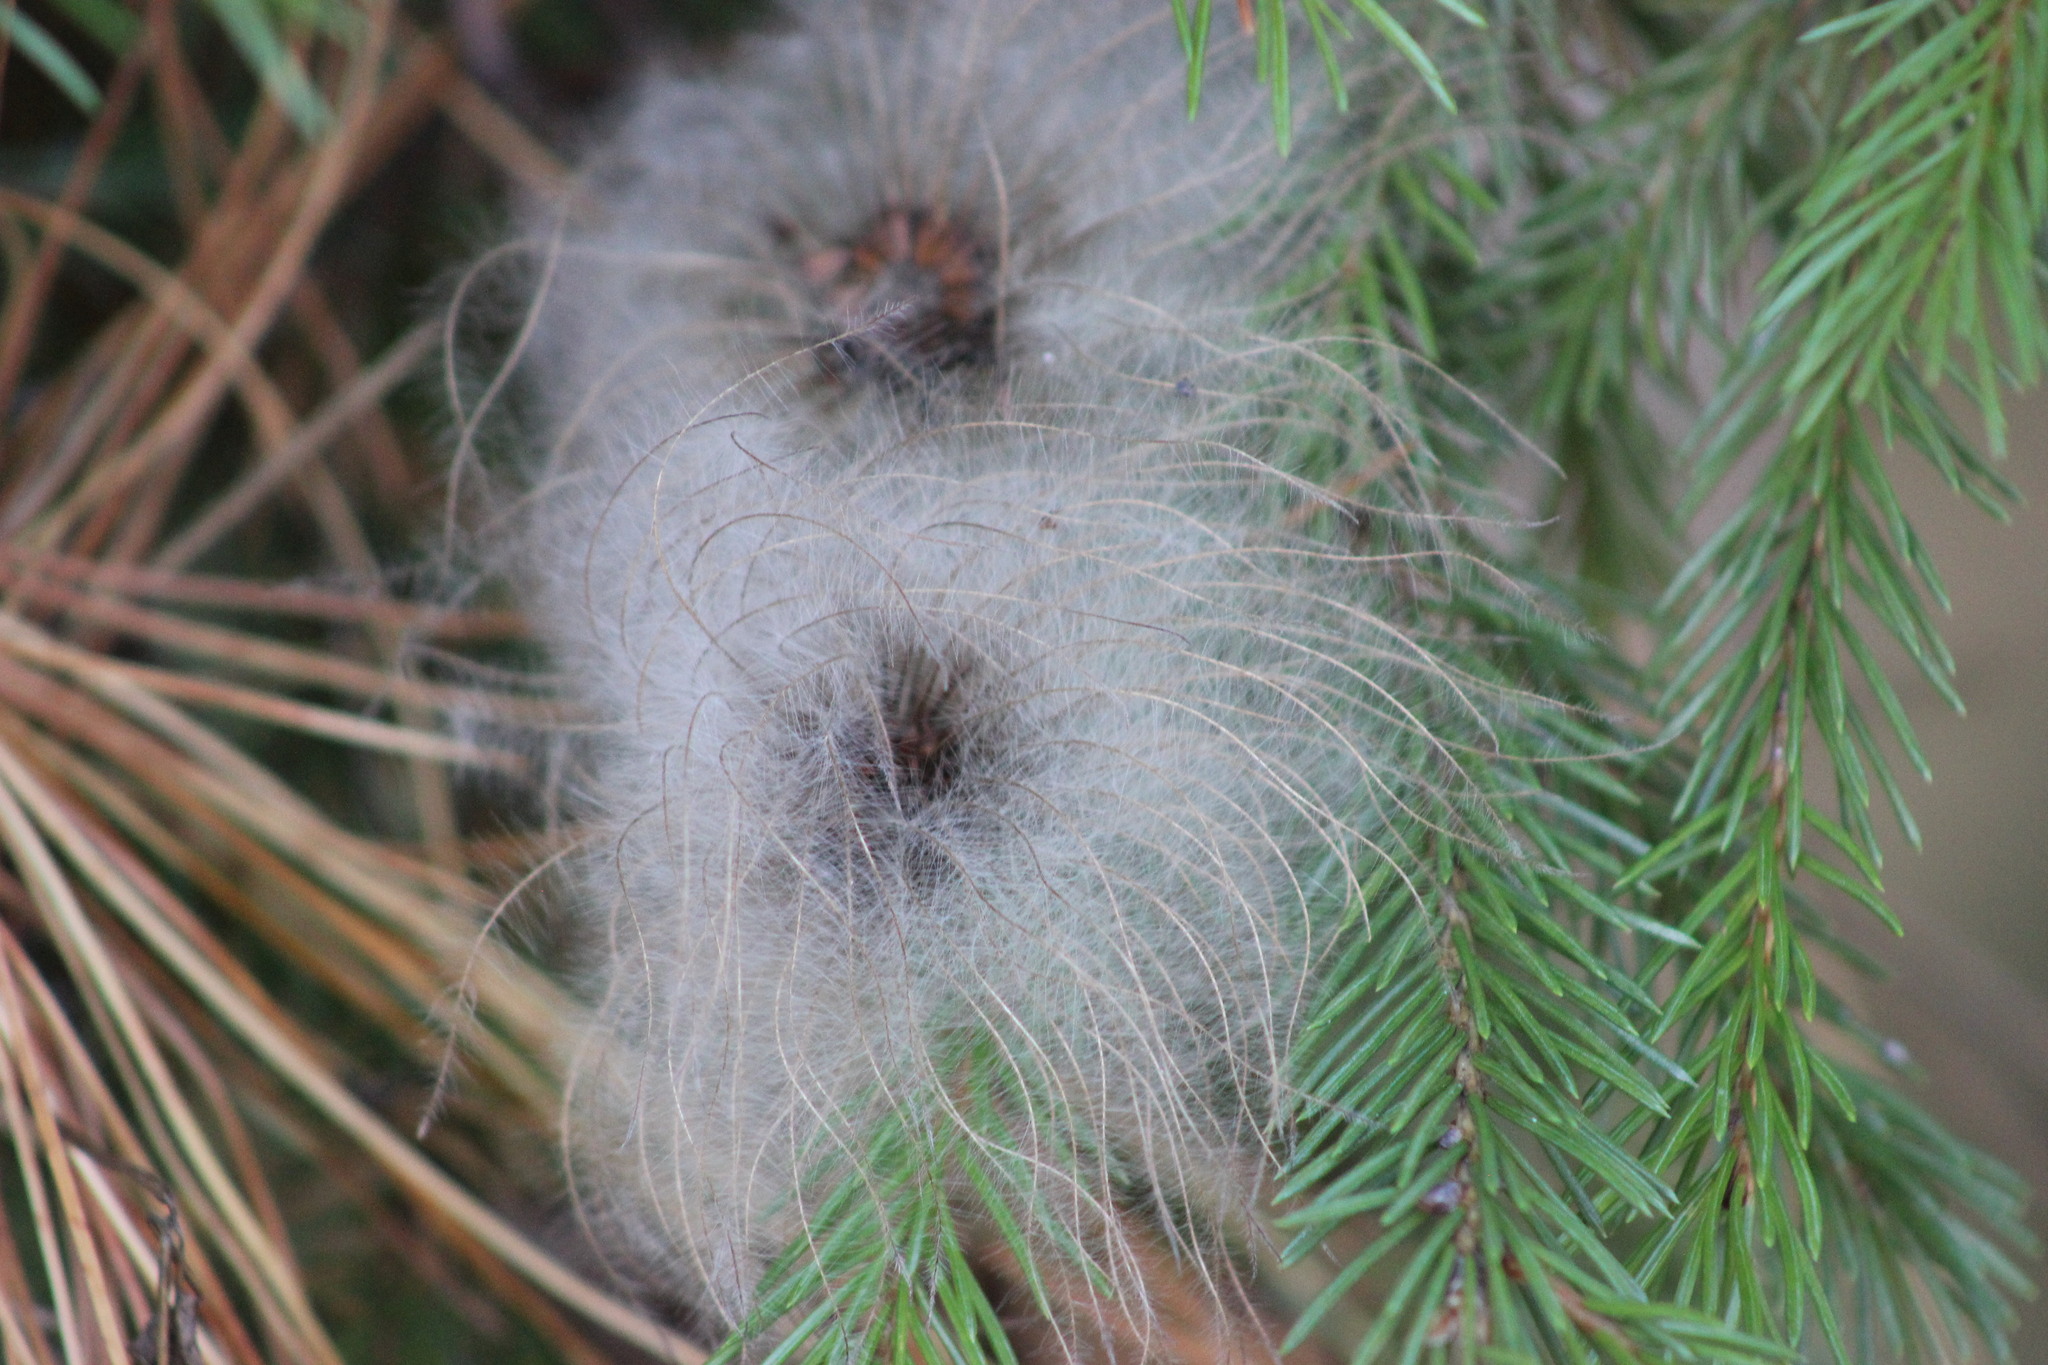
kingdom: Plantae
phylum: Tracheophyta
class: Magnoliopsida
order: Ranunculales
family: Ranunculaceae
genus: Clematis
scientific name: Clematis sibirica
